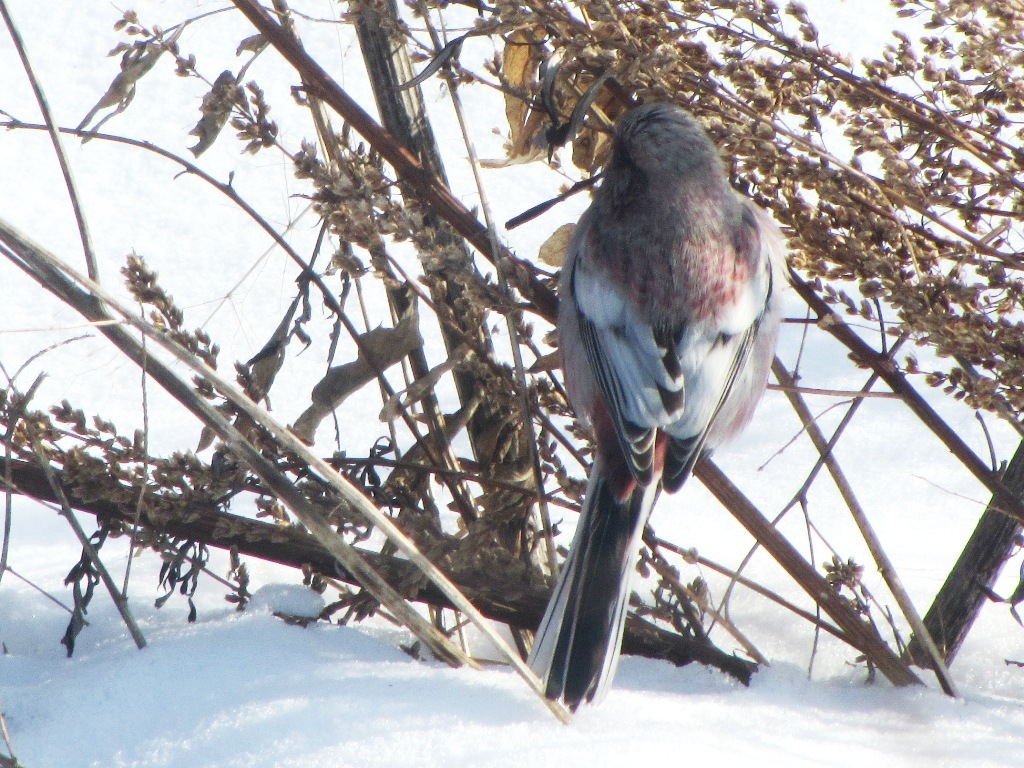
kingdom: Animalia
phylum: Chordata
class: Aves
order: Passeriformes
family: Fringillidae
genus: Carpodacus
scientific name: Carpodacus sibiricus
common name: Long-tailed rosefinch
